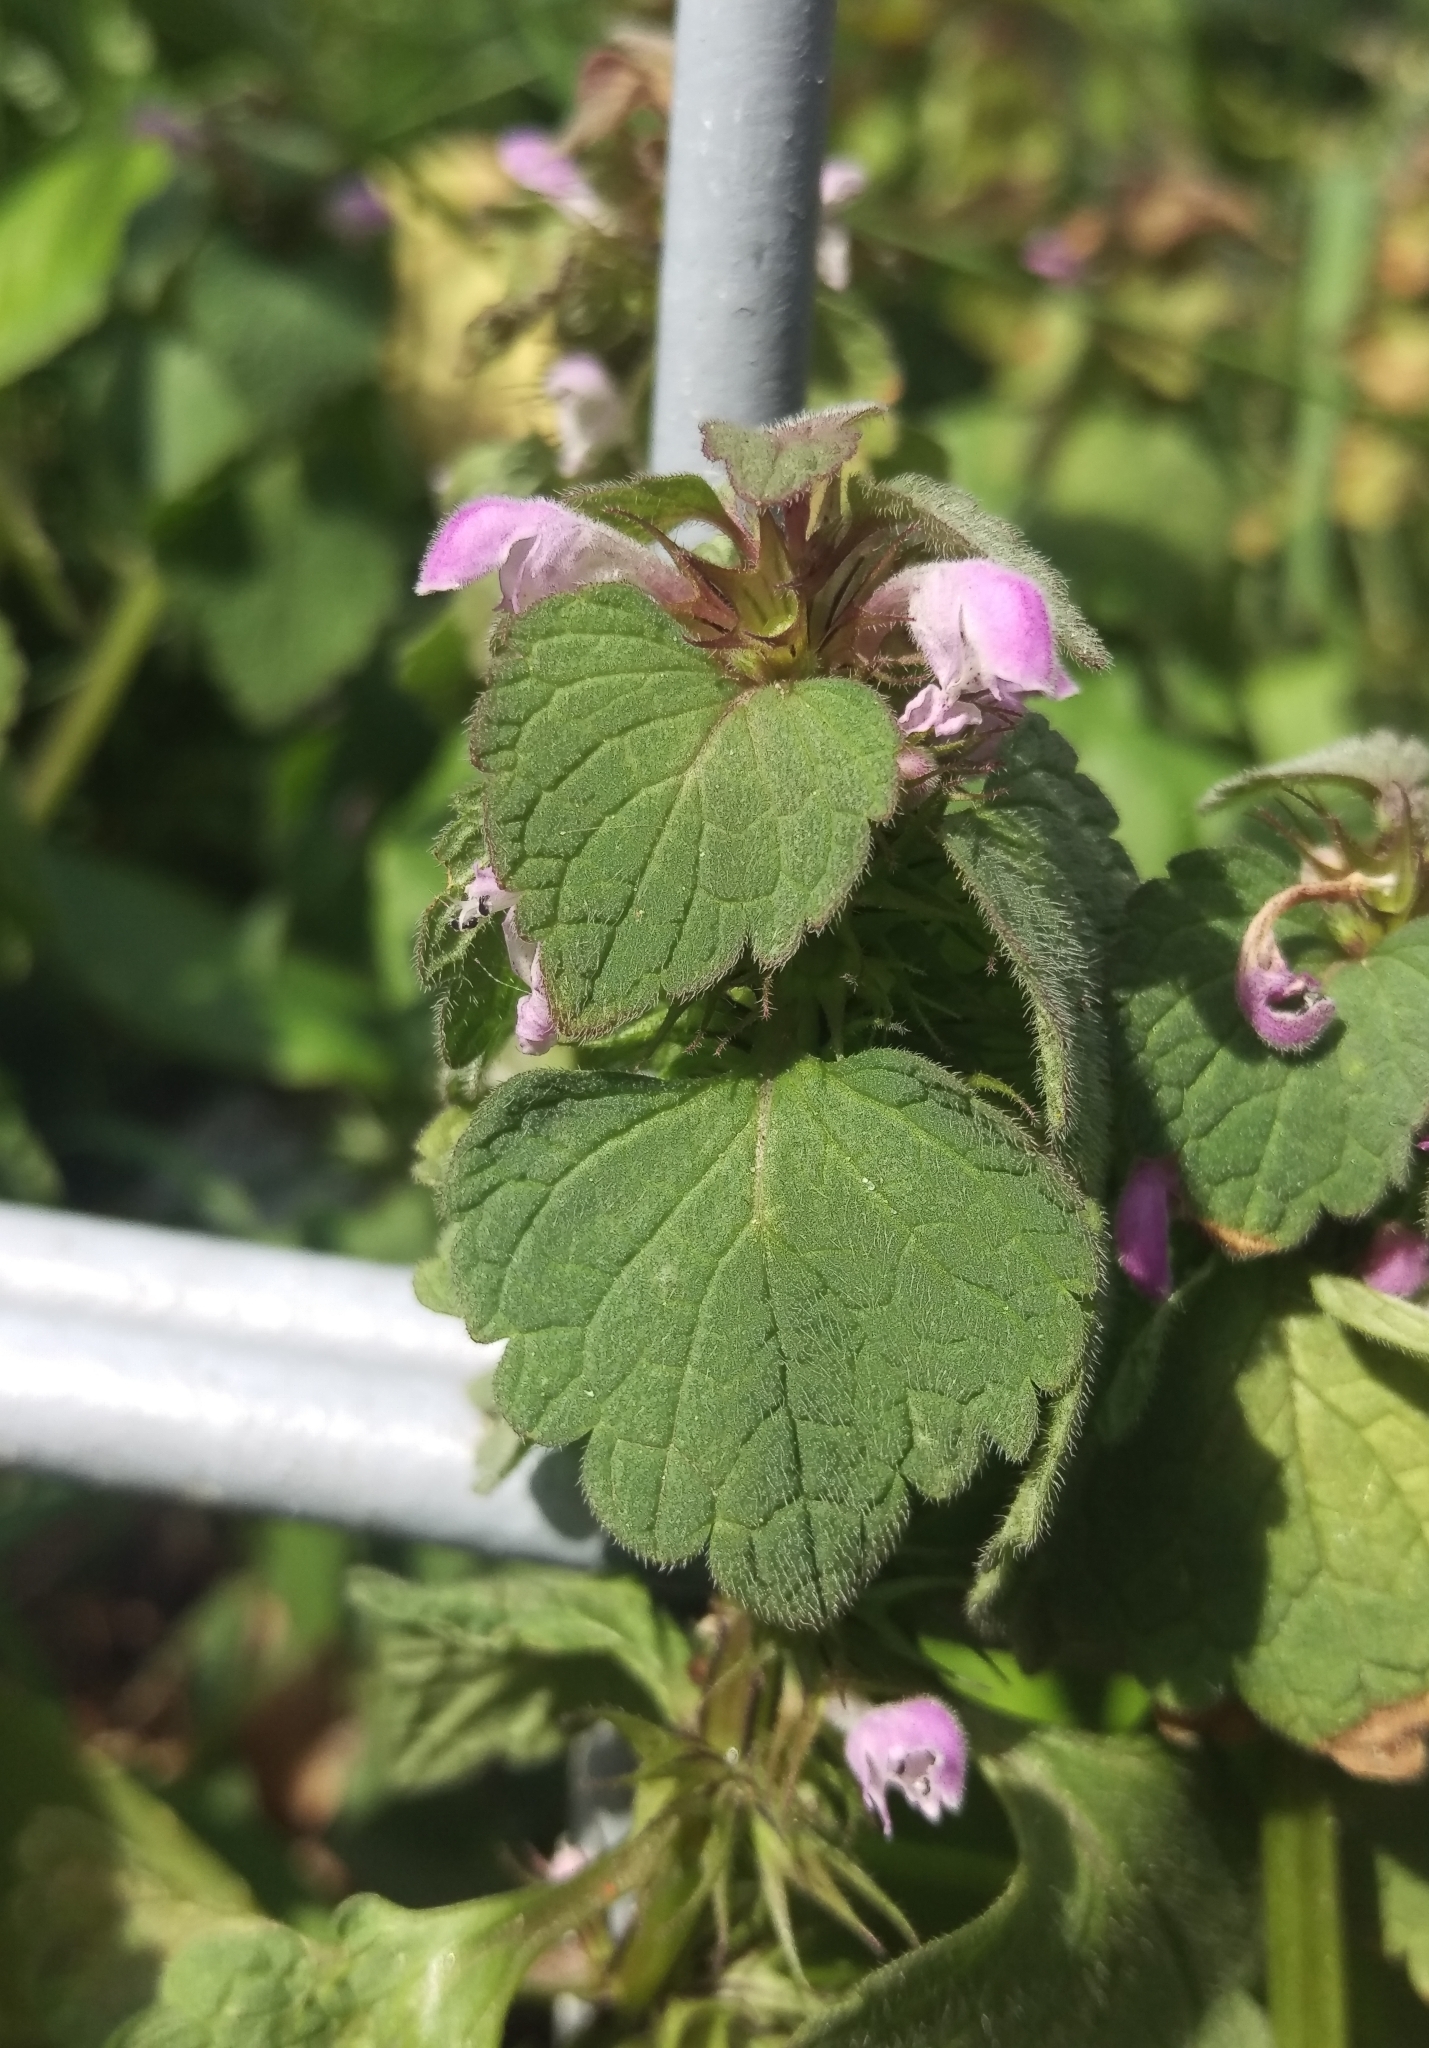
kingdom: Plantae
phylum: Tracheophyta
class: Magnoliopsida
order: Lamiales
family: Lamiaceae
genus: Lamium
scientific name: Lamium purpureum
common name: Red dead-nettle
